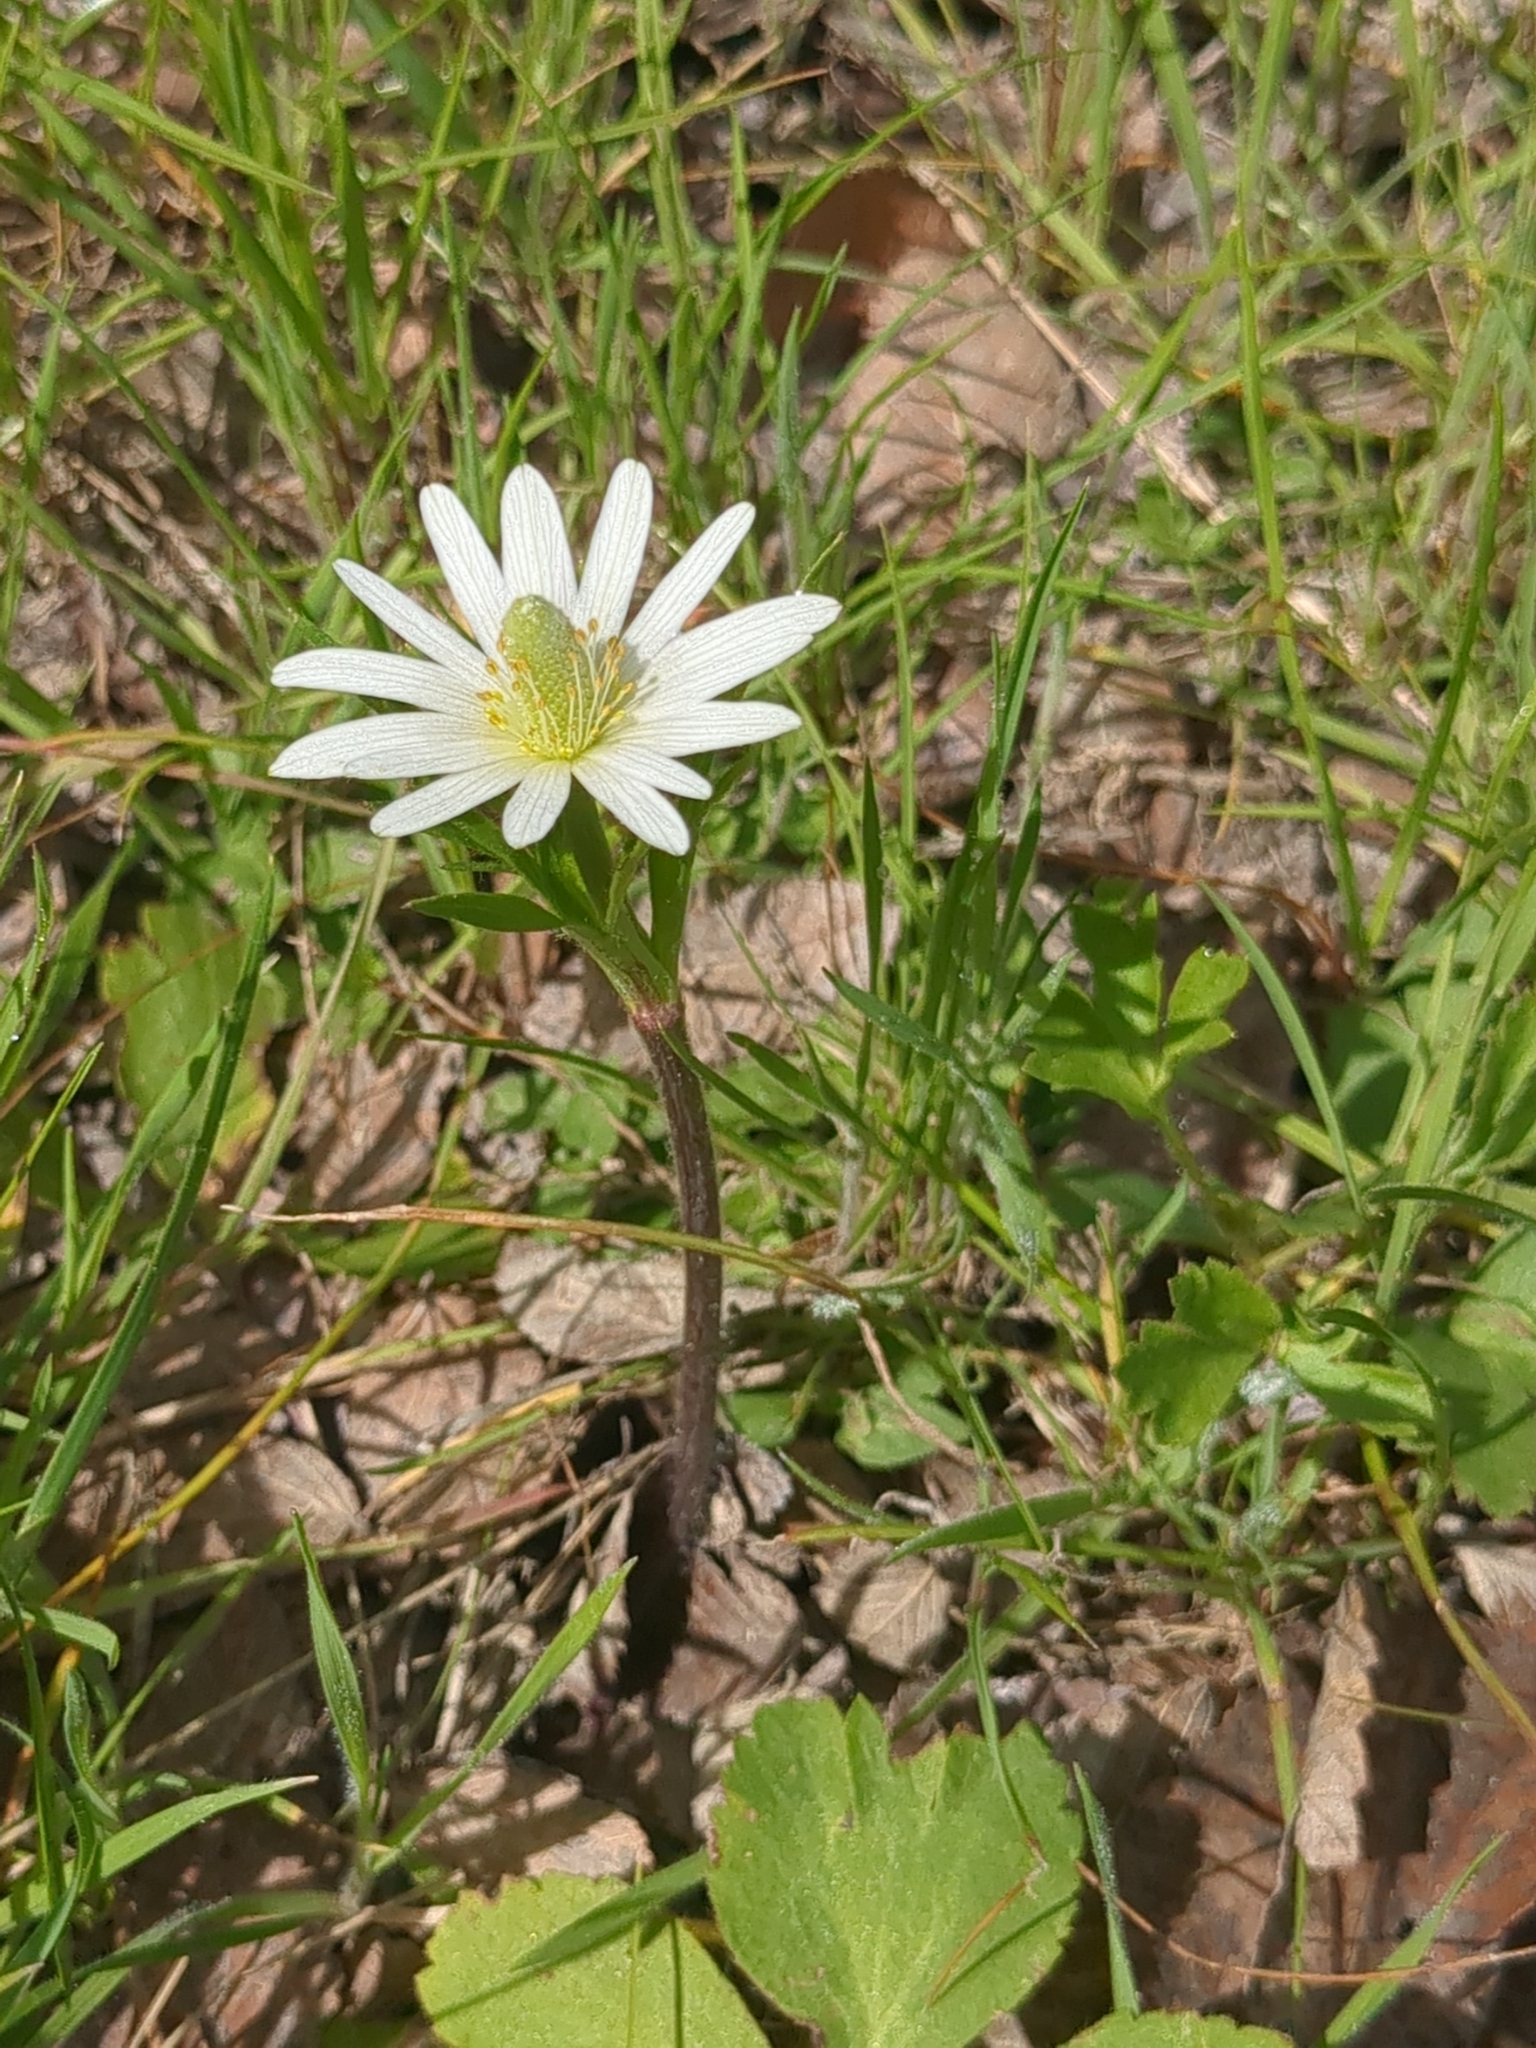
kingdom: Plantae
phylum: Tracheophyta
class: Magnoliopsida
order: Ranunculales
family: Ranunculaceae
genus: Anemone
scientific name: Anemone berlandieri
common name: Ten-petal anemone
